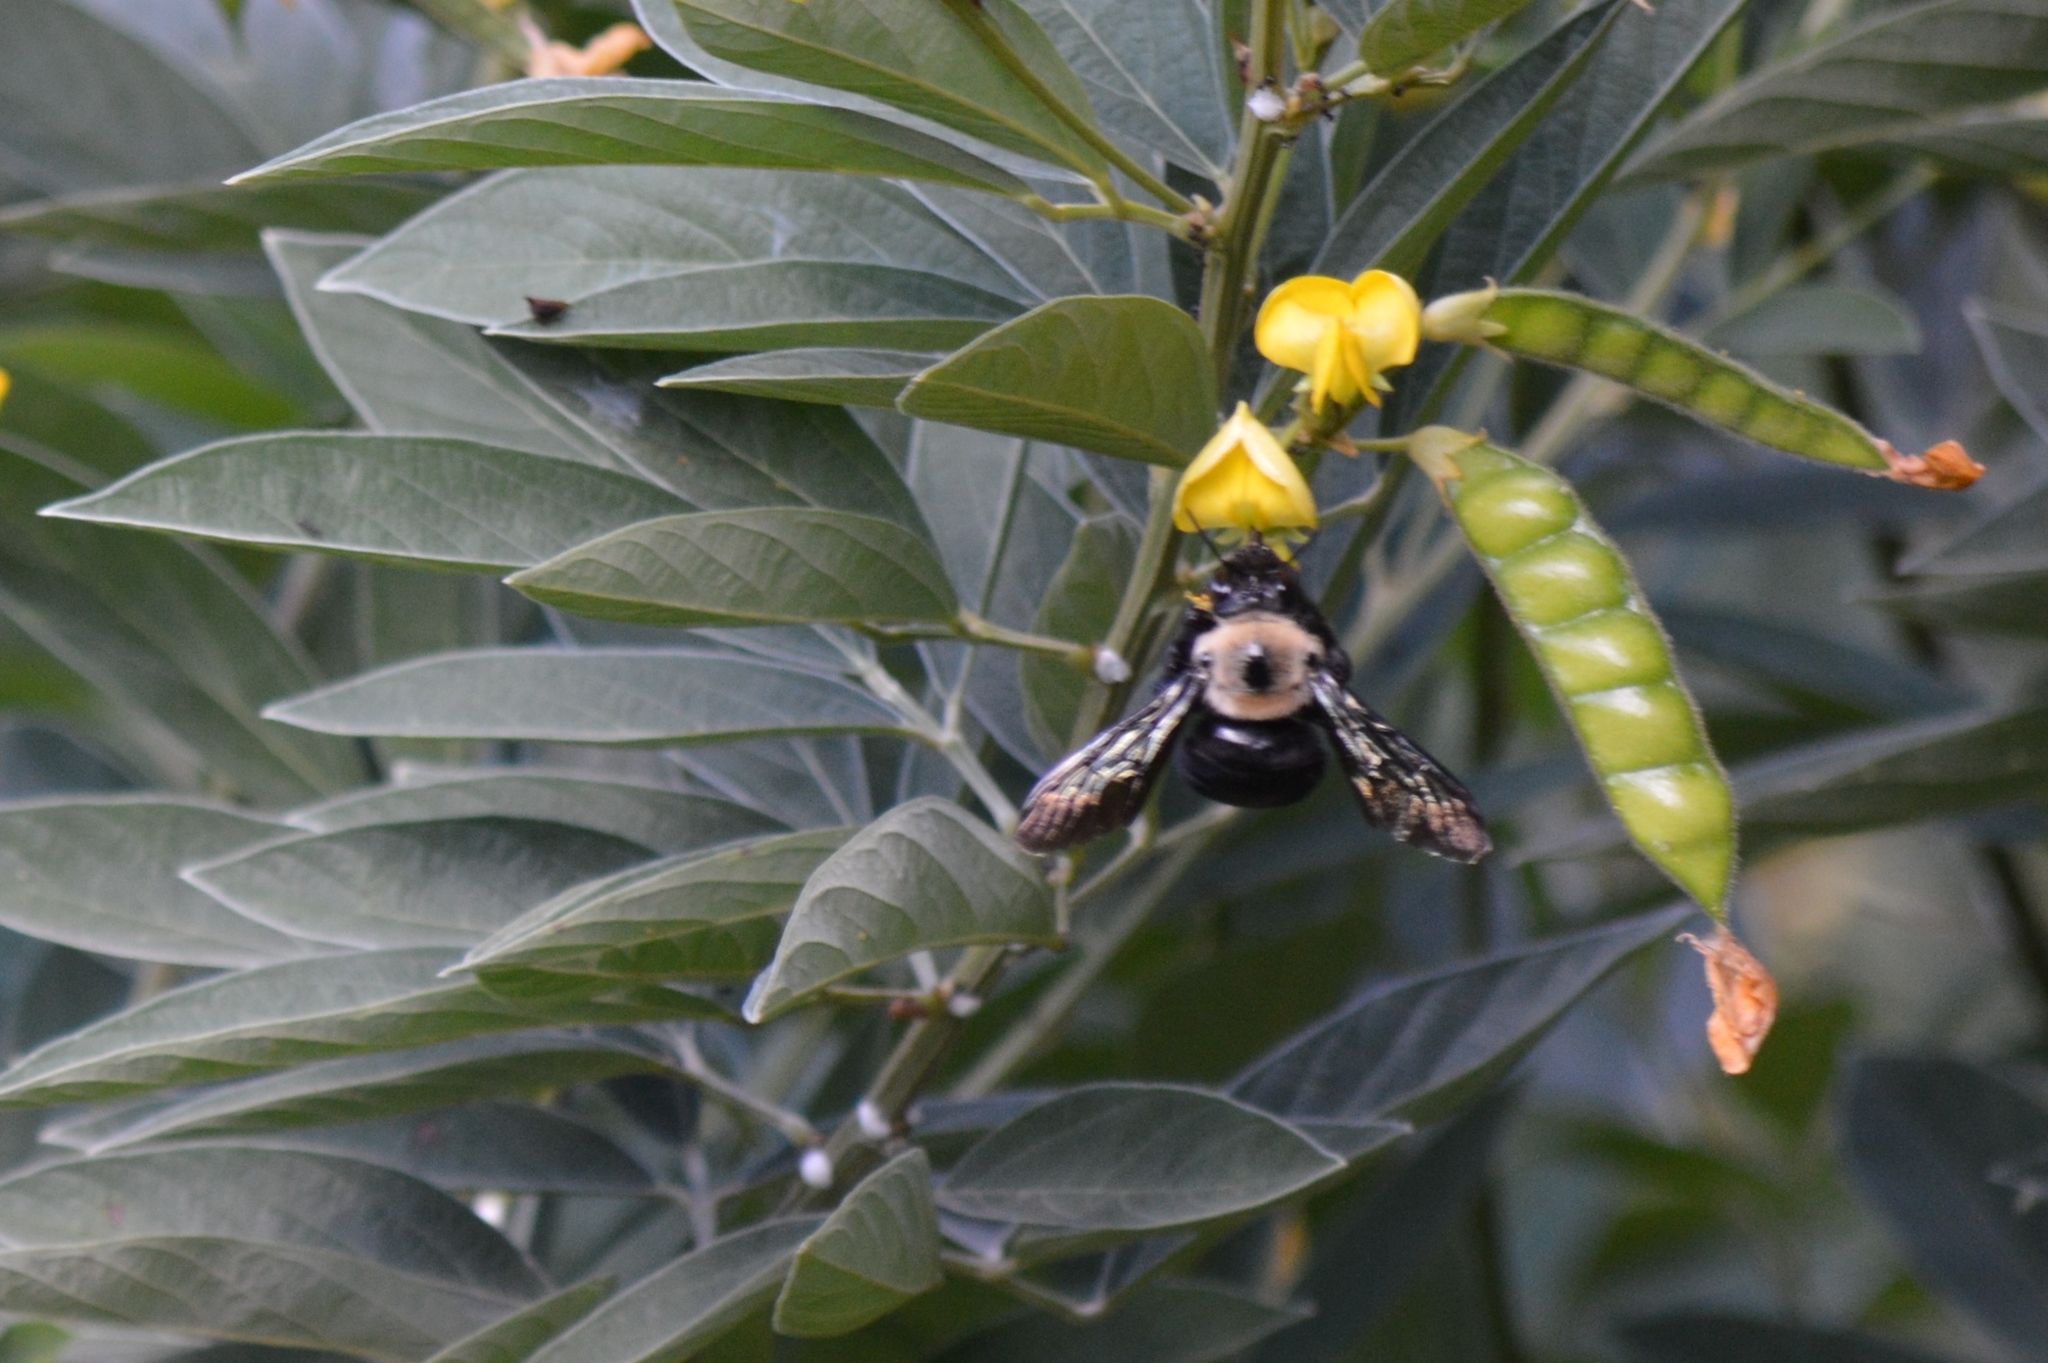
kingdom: Animalia
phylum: Arthropoda
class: Insecta
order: Hymenoptera
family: Apidae
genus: Xylocopa
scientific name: Xylocopa grisescens
